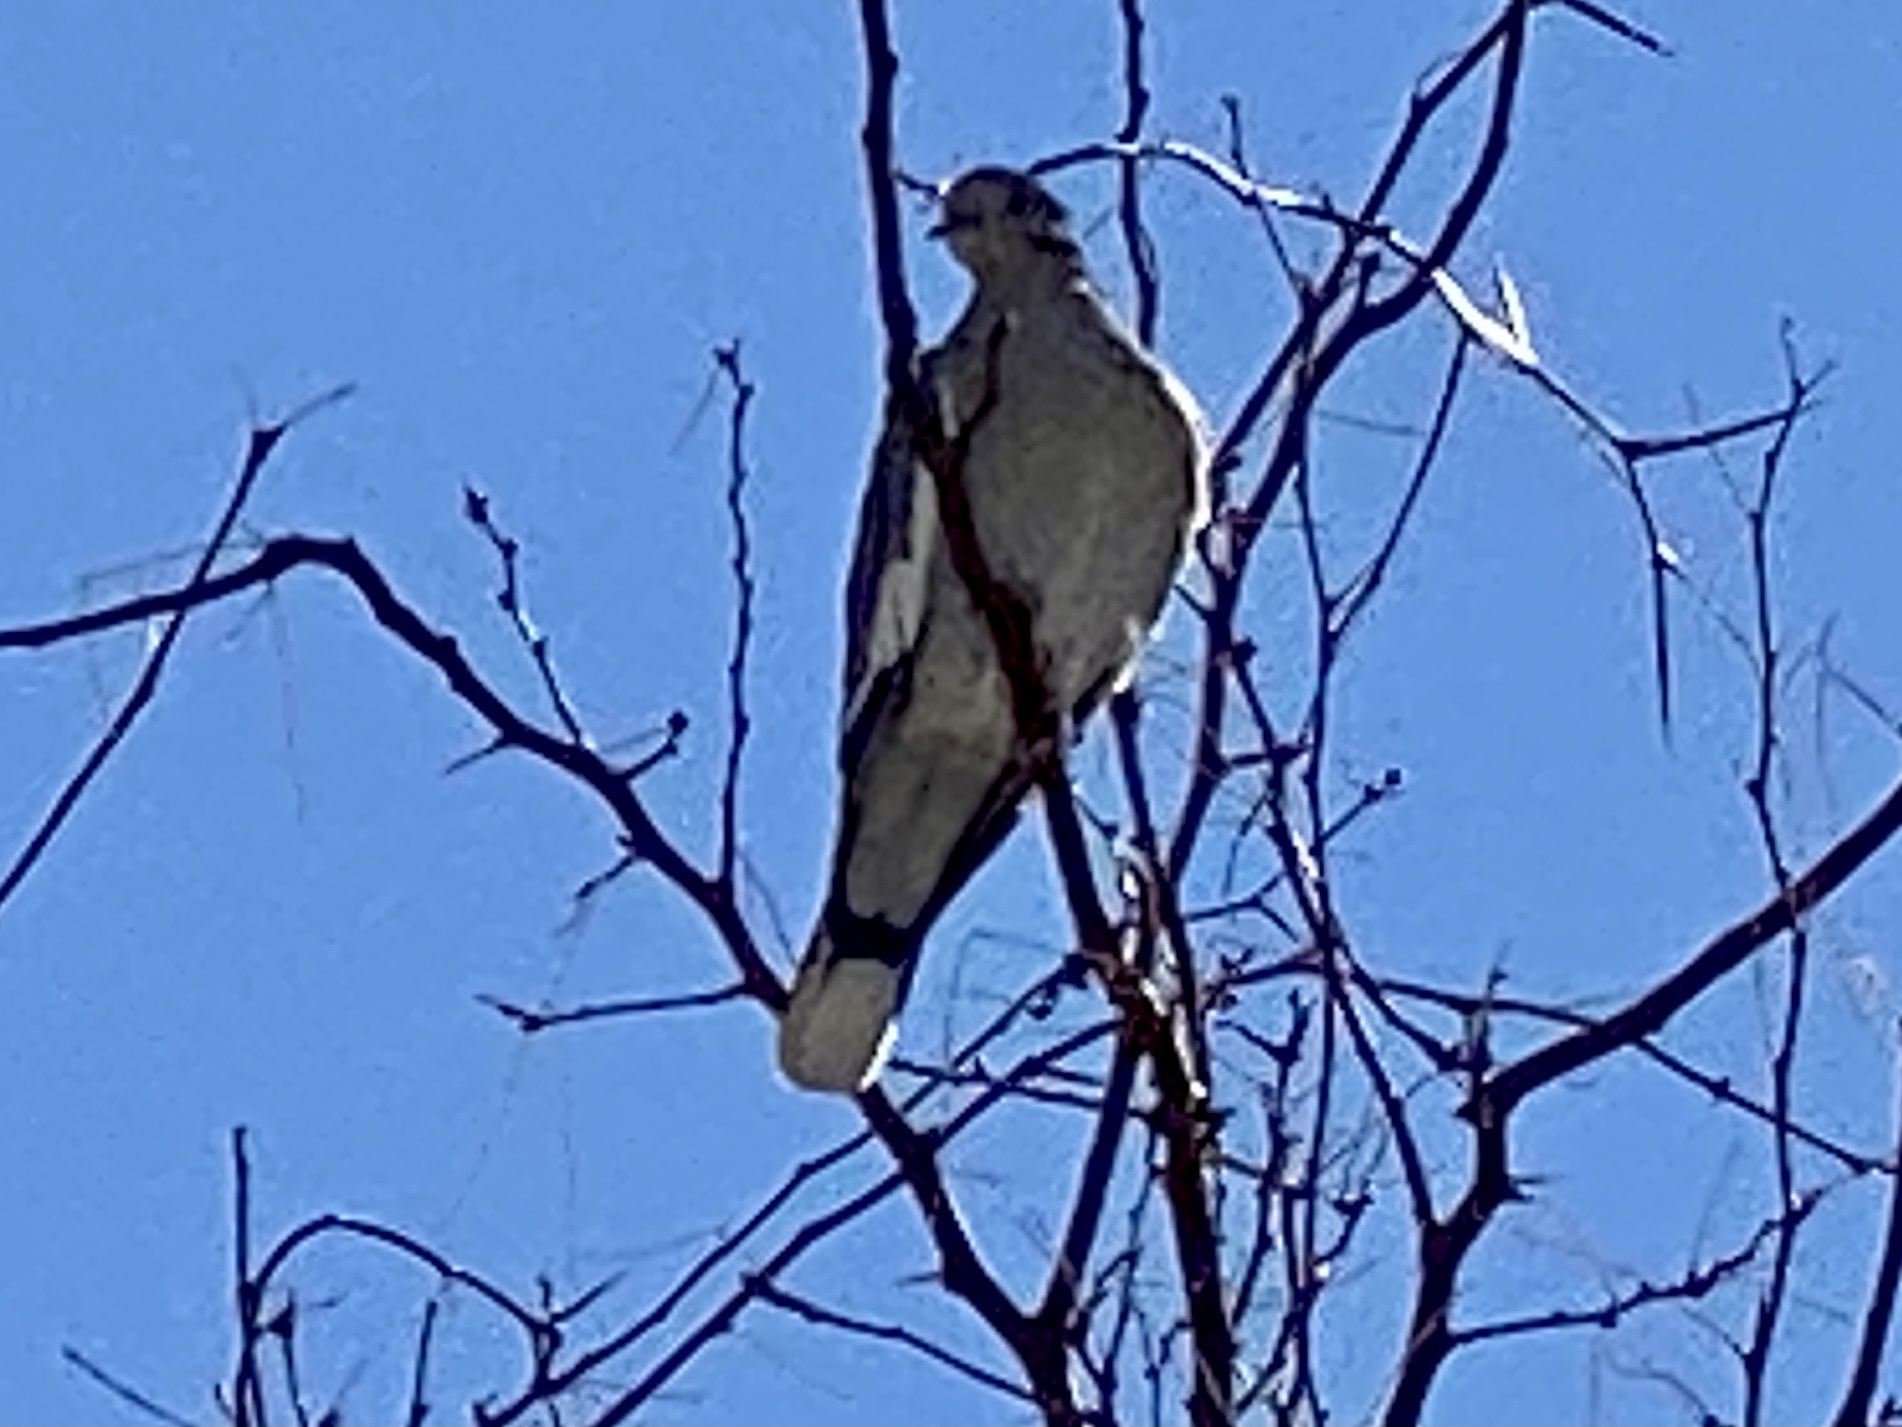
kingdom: Animalia
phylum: Chordata
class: Aves
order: Columbiformes
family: Columbidae
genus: Zenaida
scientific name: Zenaida asiatica
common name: White-winged dove
